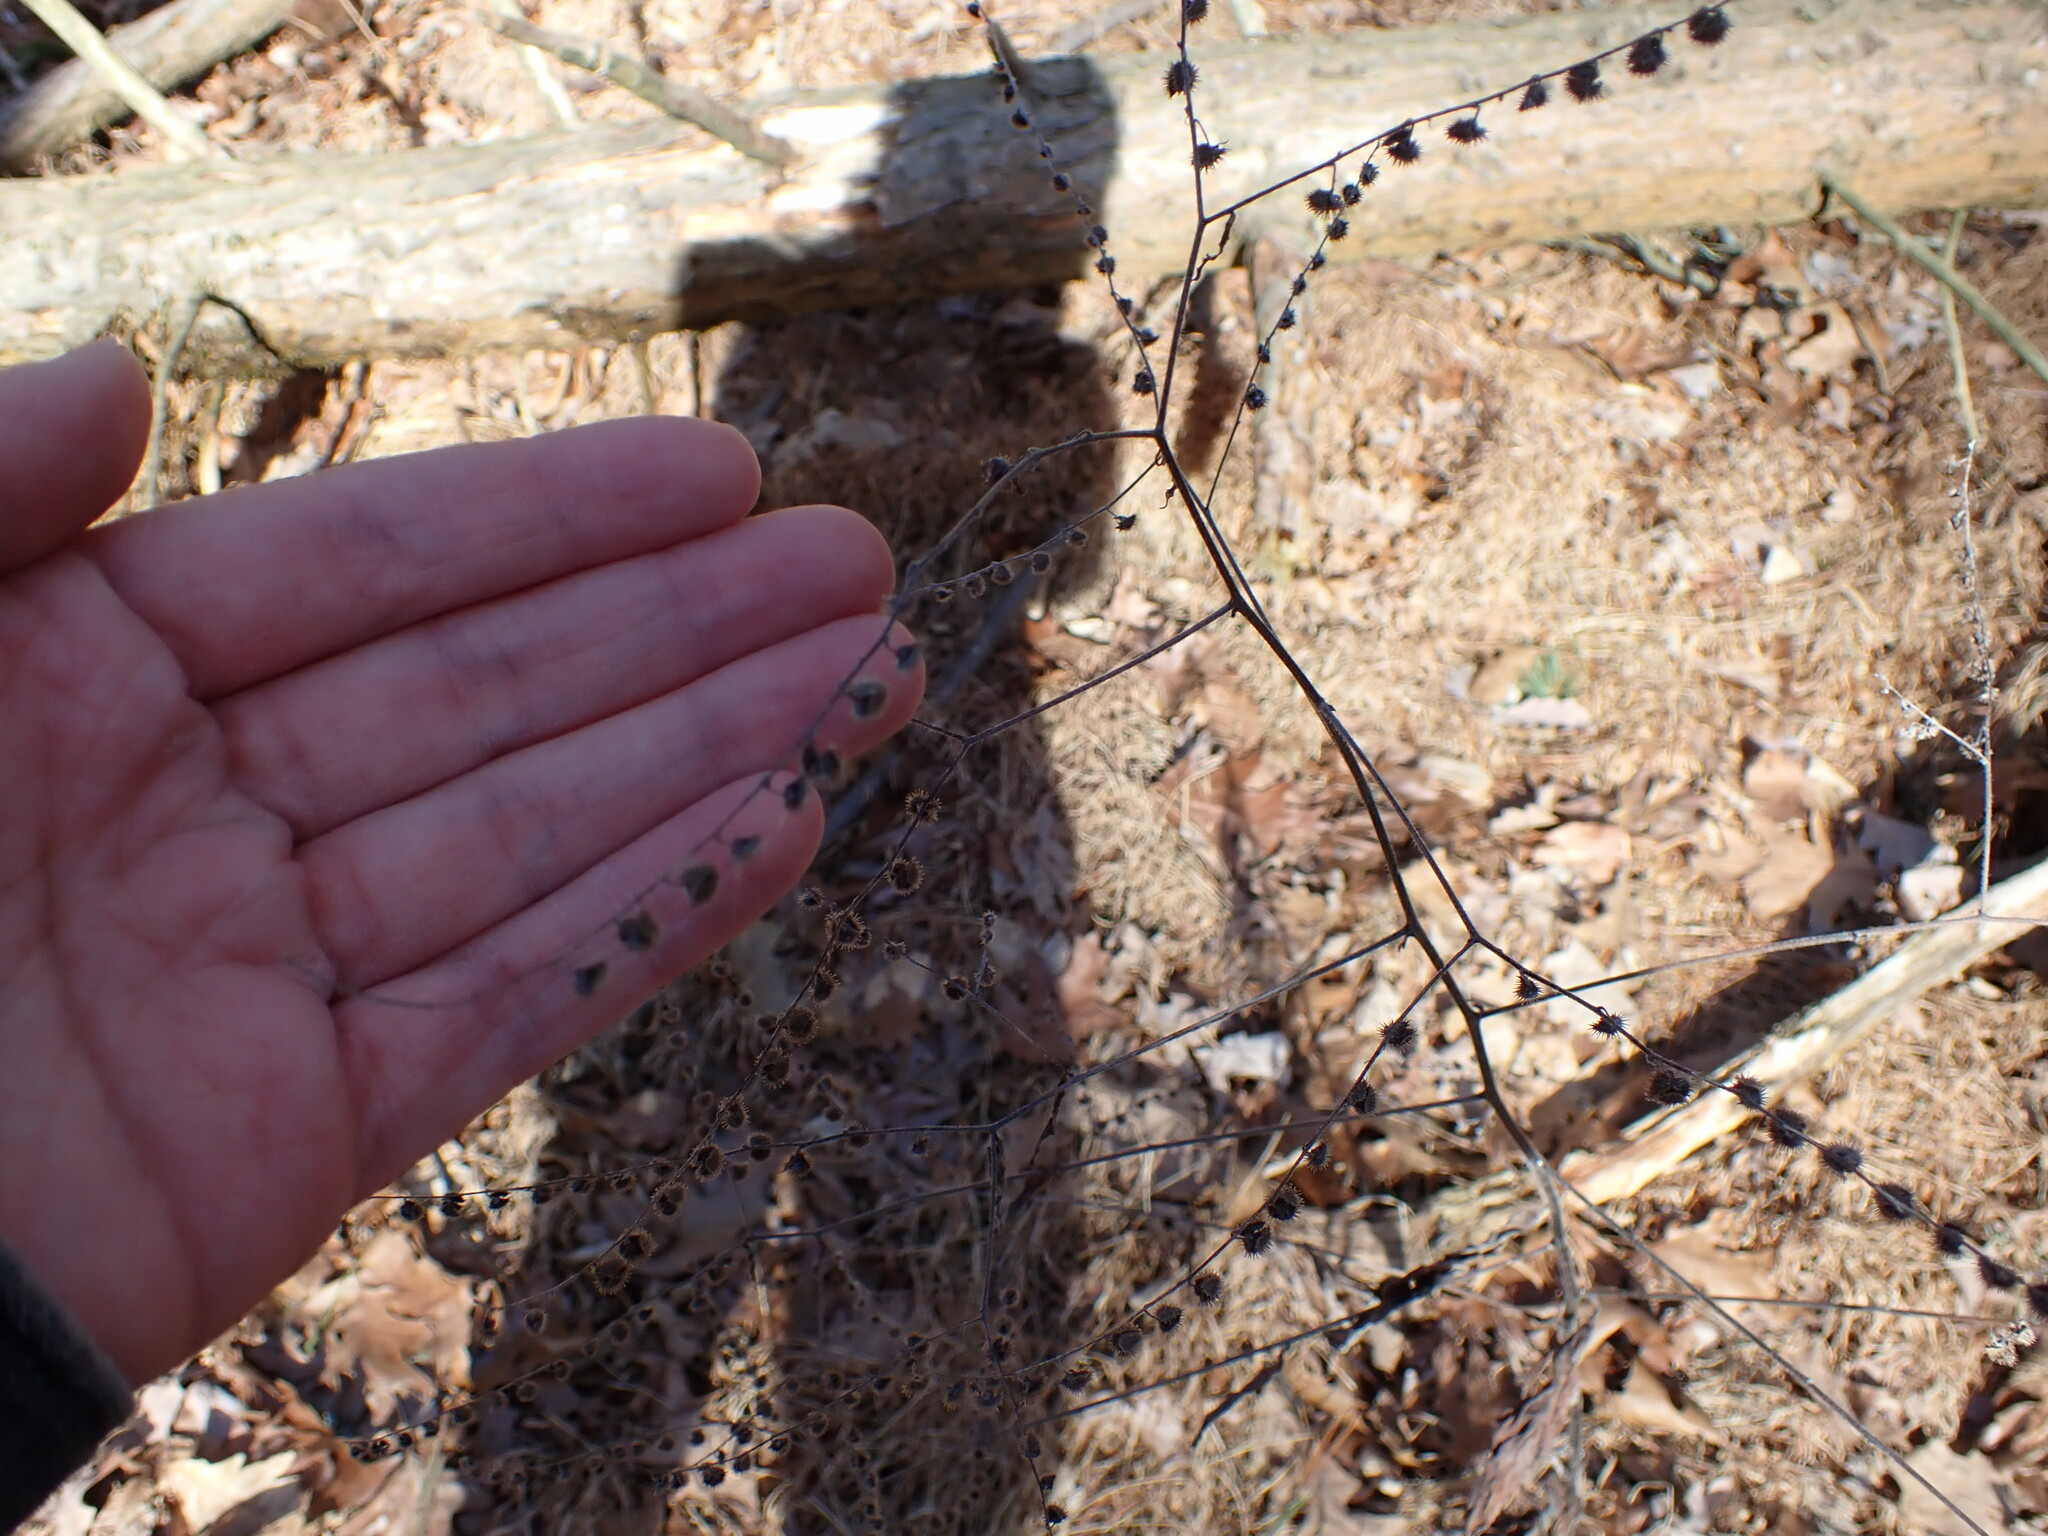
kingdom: Plantae
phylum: Tracheophyta
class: Magnoliopsida
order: Boraginales
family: Boraginaceae
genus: Hackelia
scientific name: Hackelia virginiana
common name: Beggar's-lice
